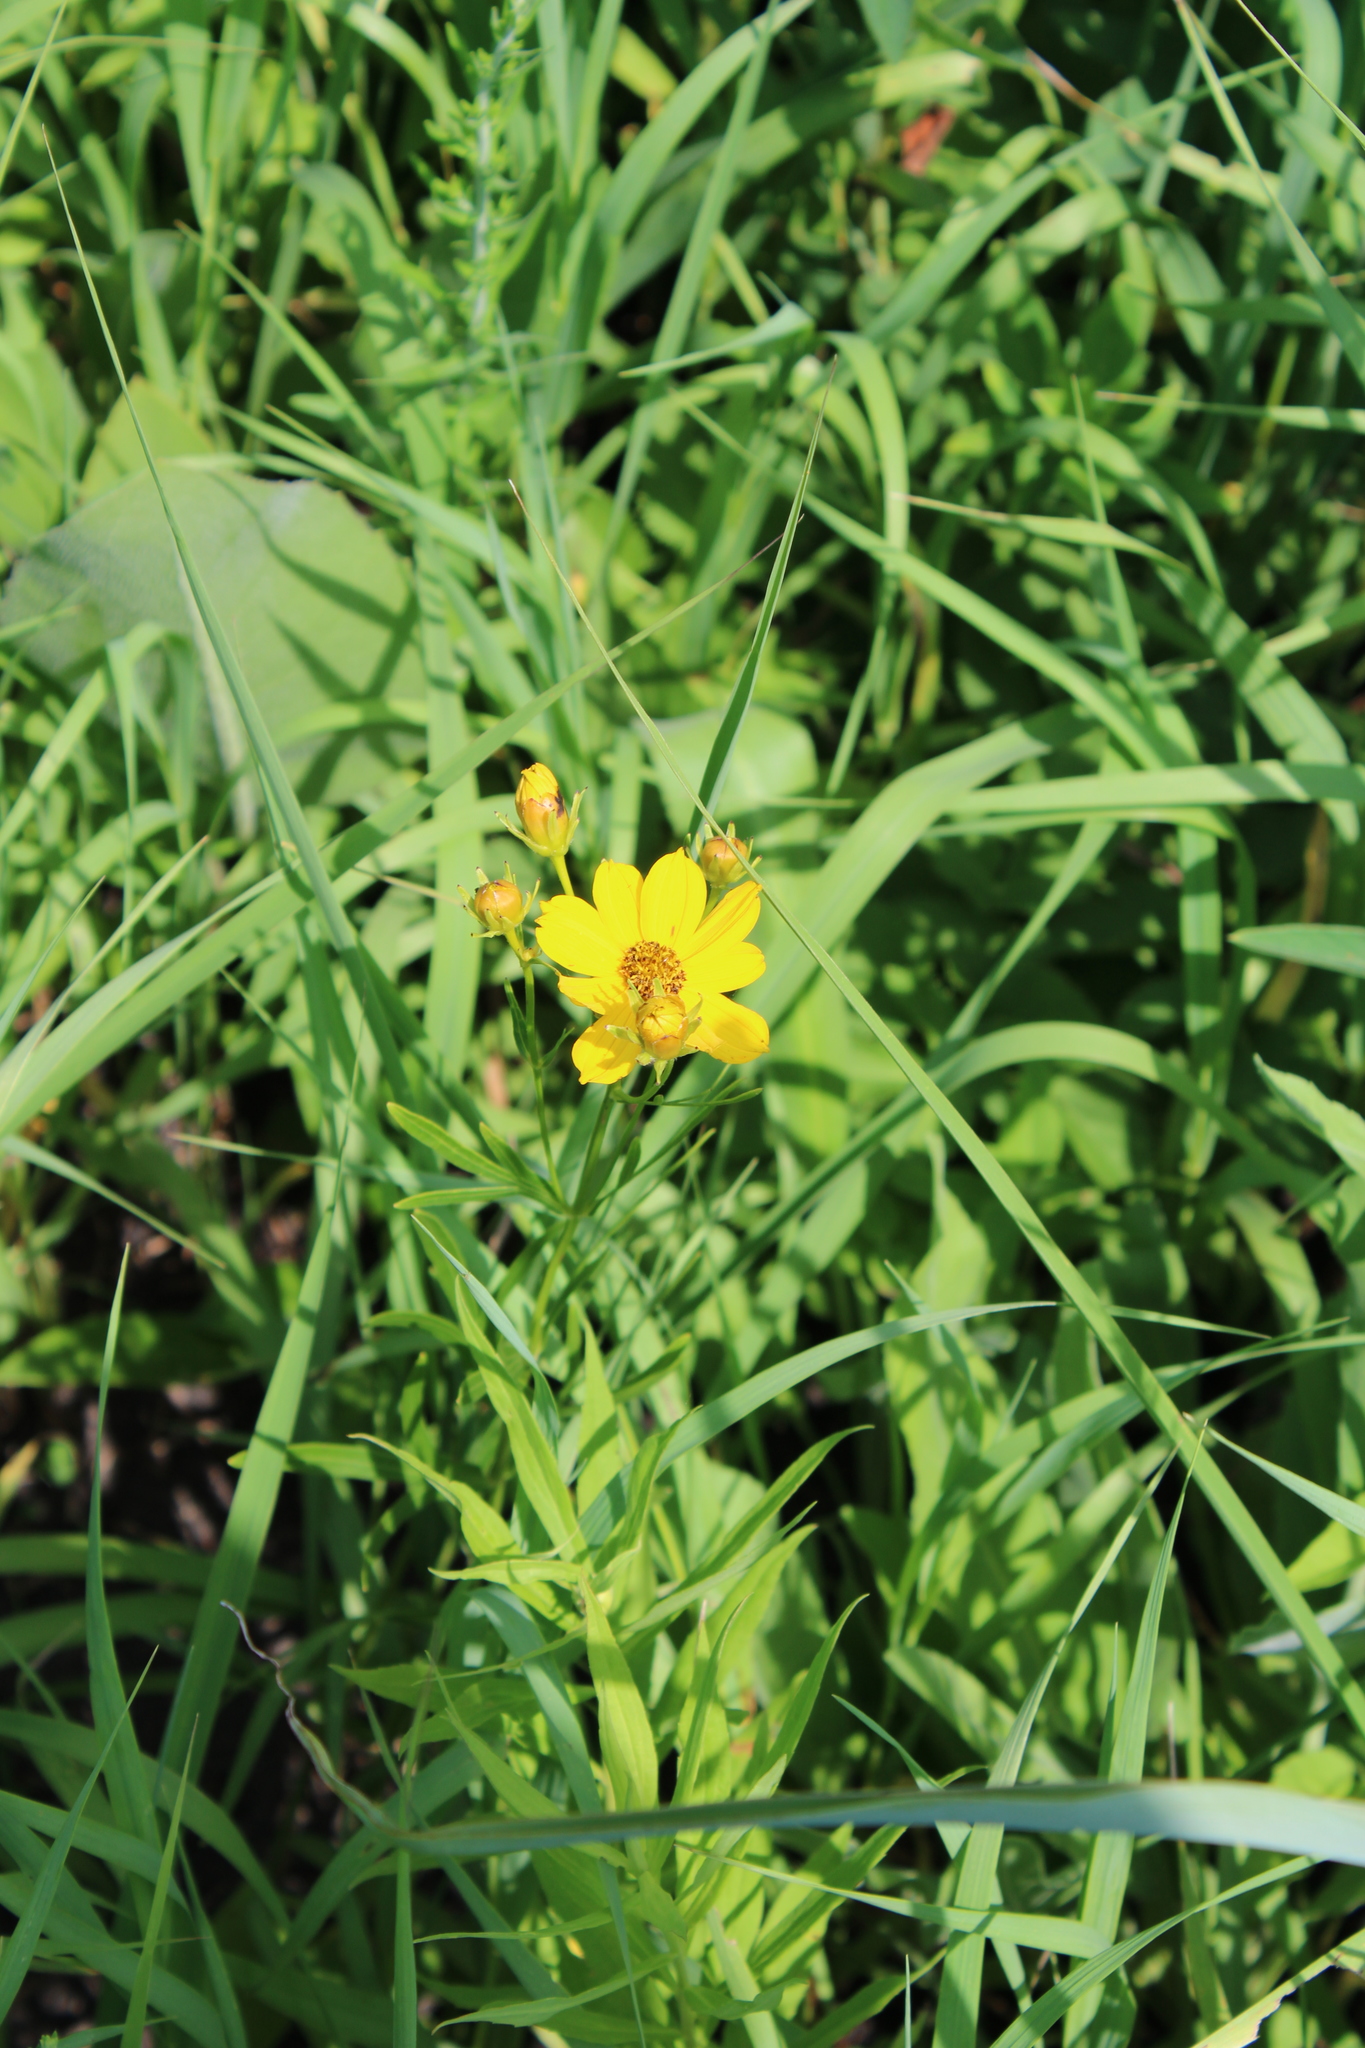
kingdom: Plantae
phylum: Tracheophyta
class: Magnoliopsida
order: Asterales
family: Asteraceae
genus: Coreopsis
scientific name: Coreopsis palmata
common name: Prairie coreopsis
